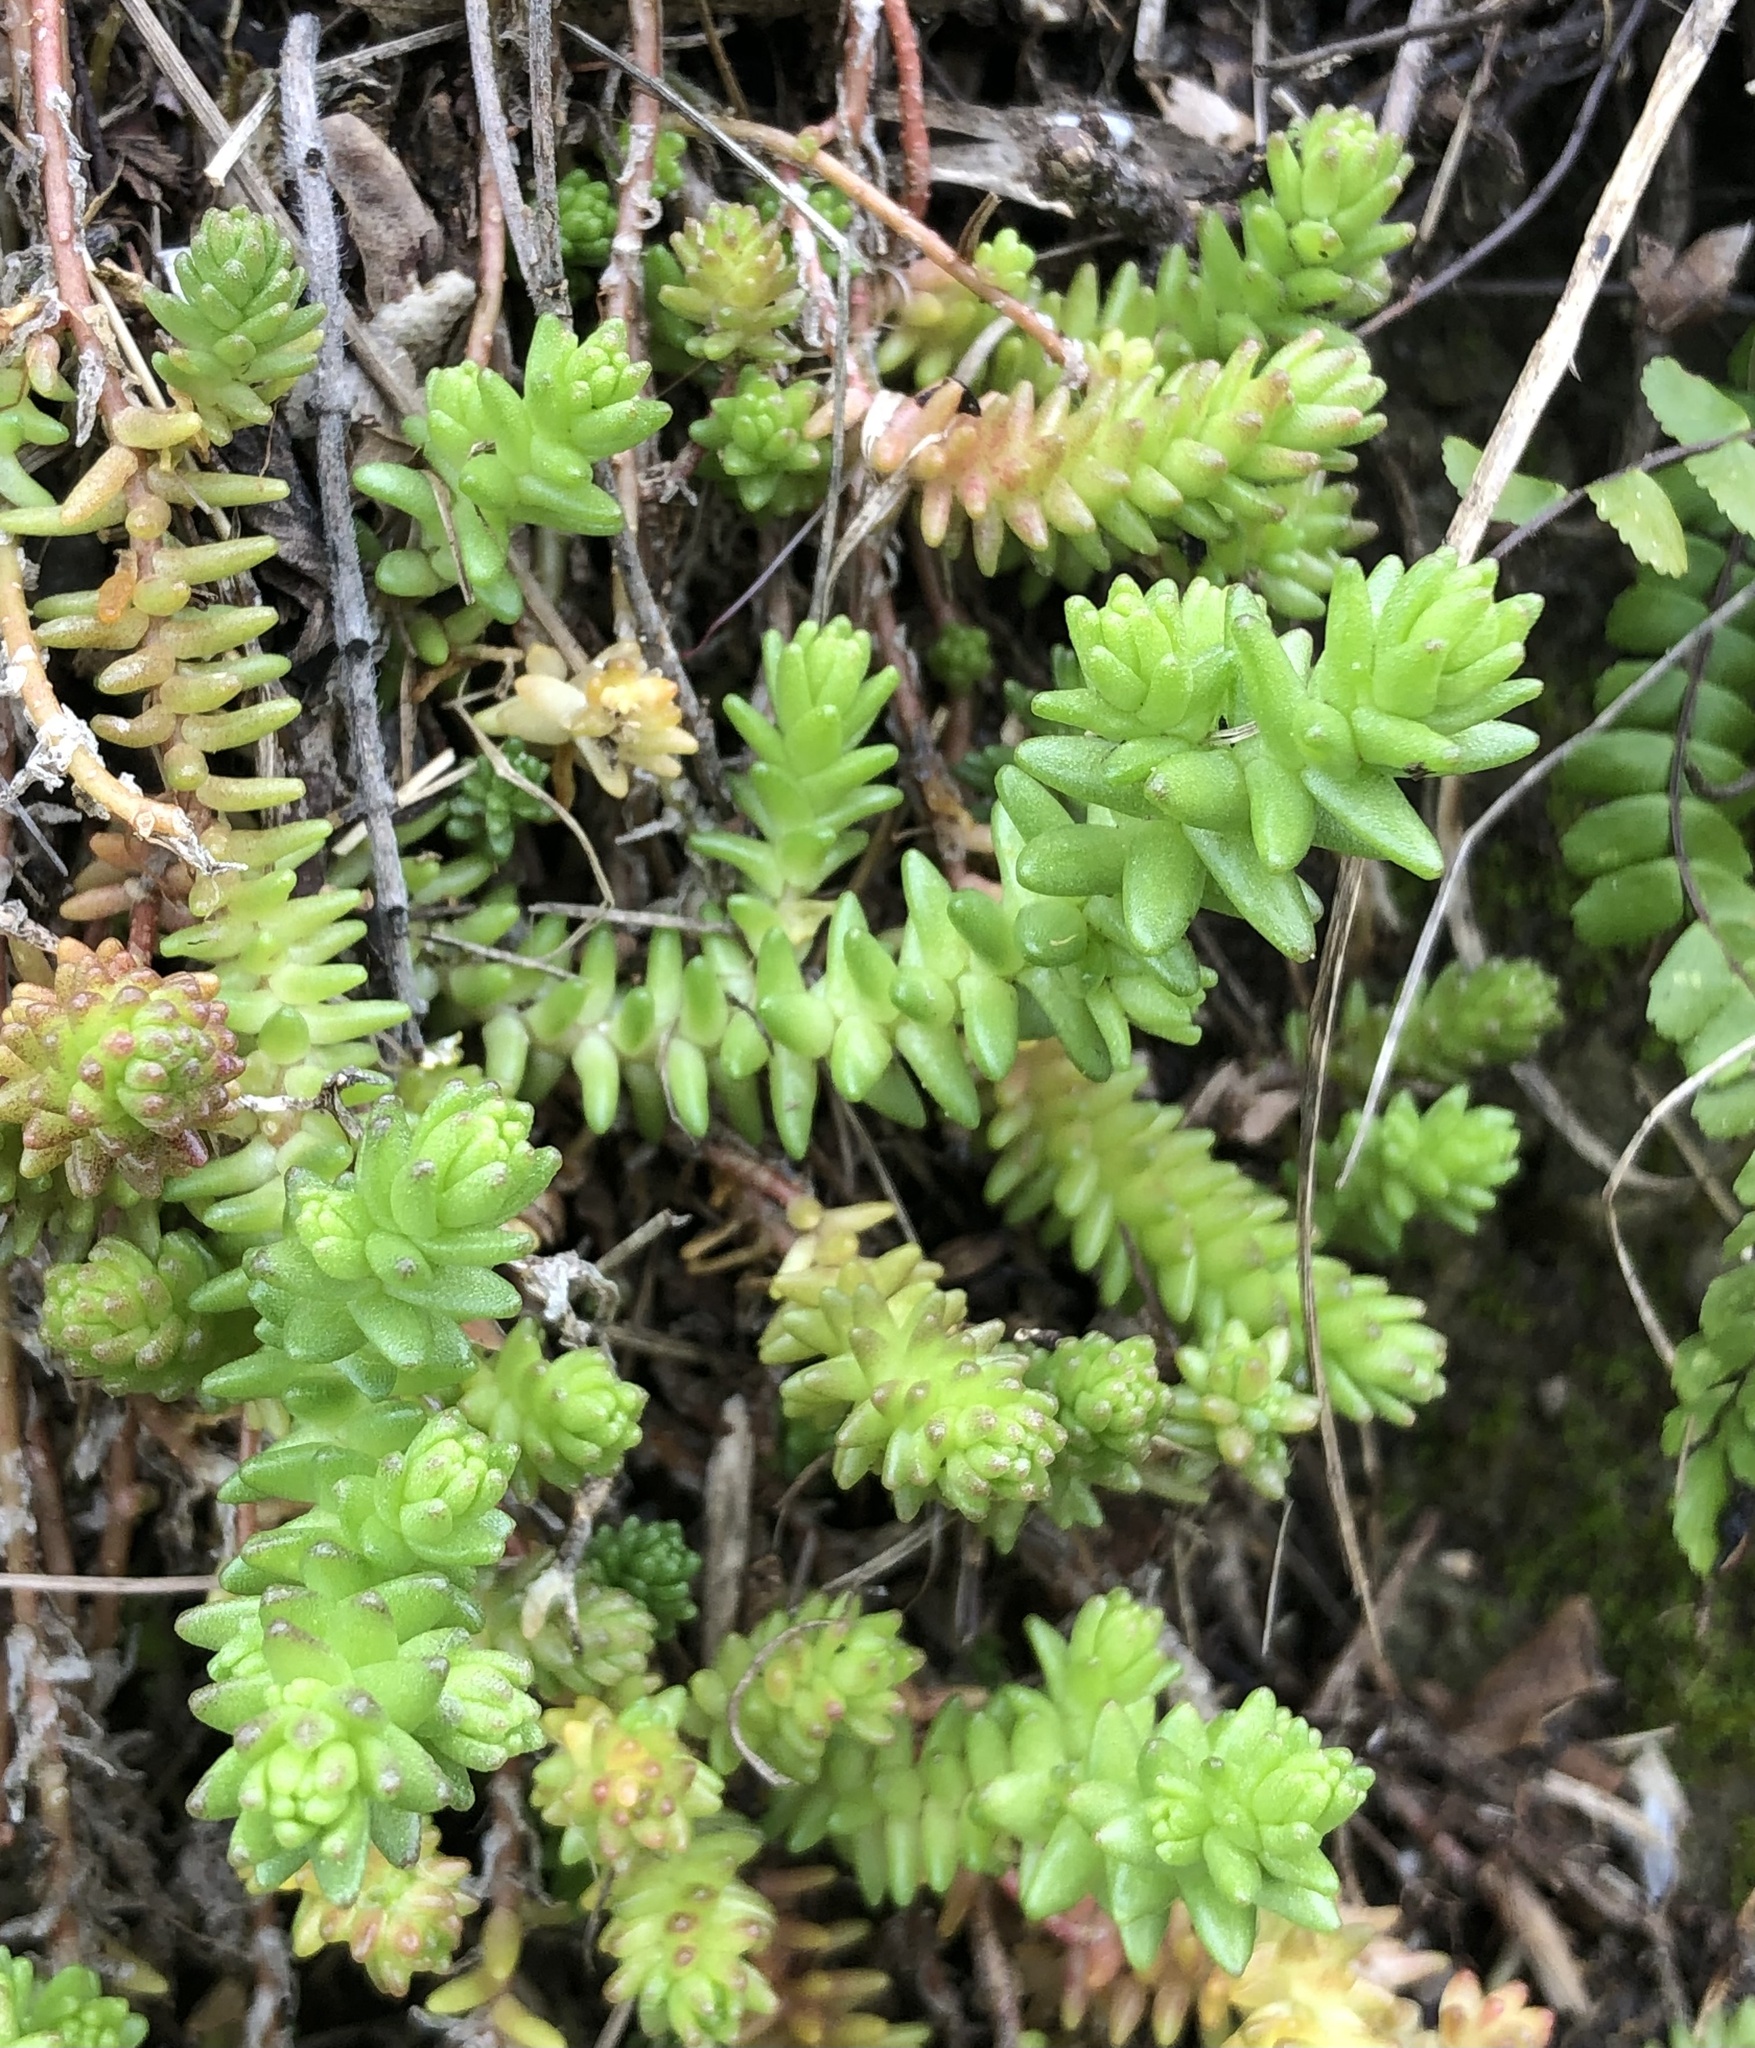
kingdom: Plantae
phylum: Tracheophyta
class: Magnoliopsida
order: Saxifragales
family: Crassulaceae
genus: Sedum
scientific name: Sedum acre
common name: Biting stonecrop
